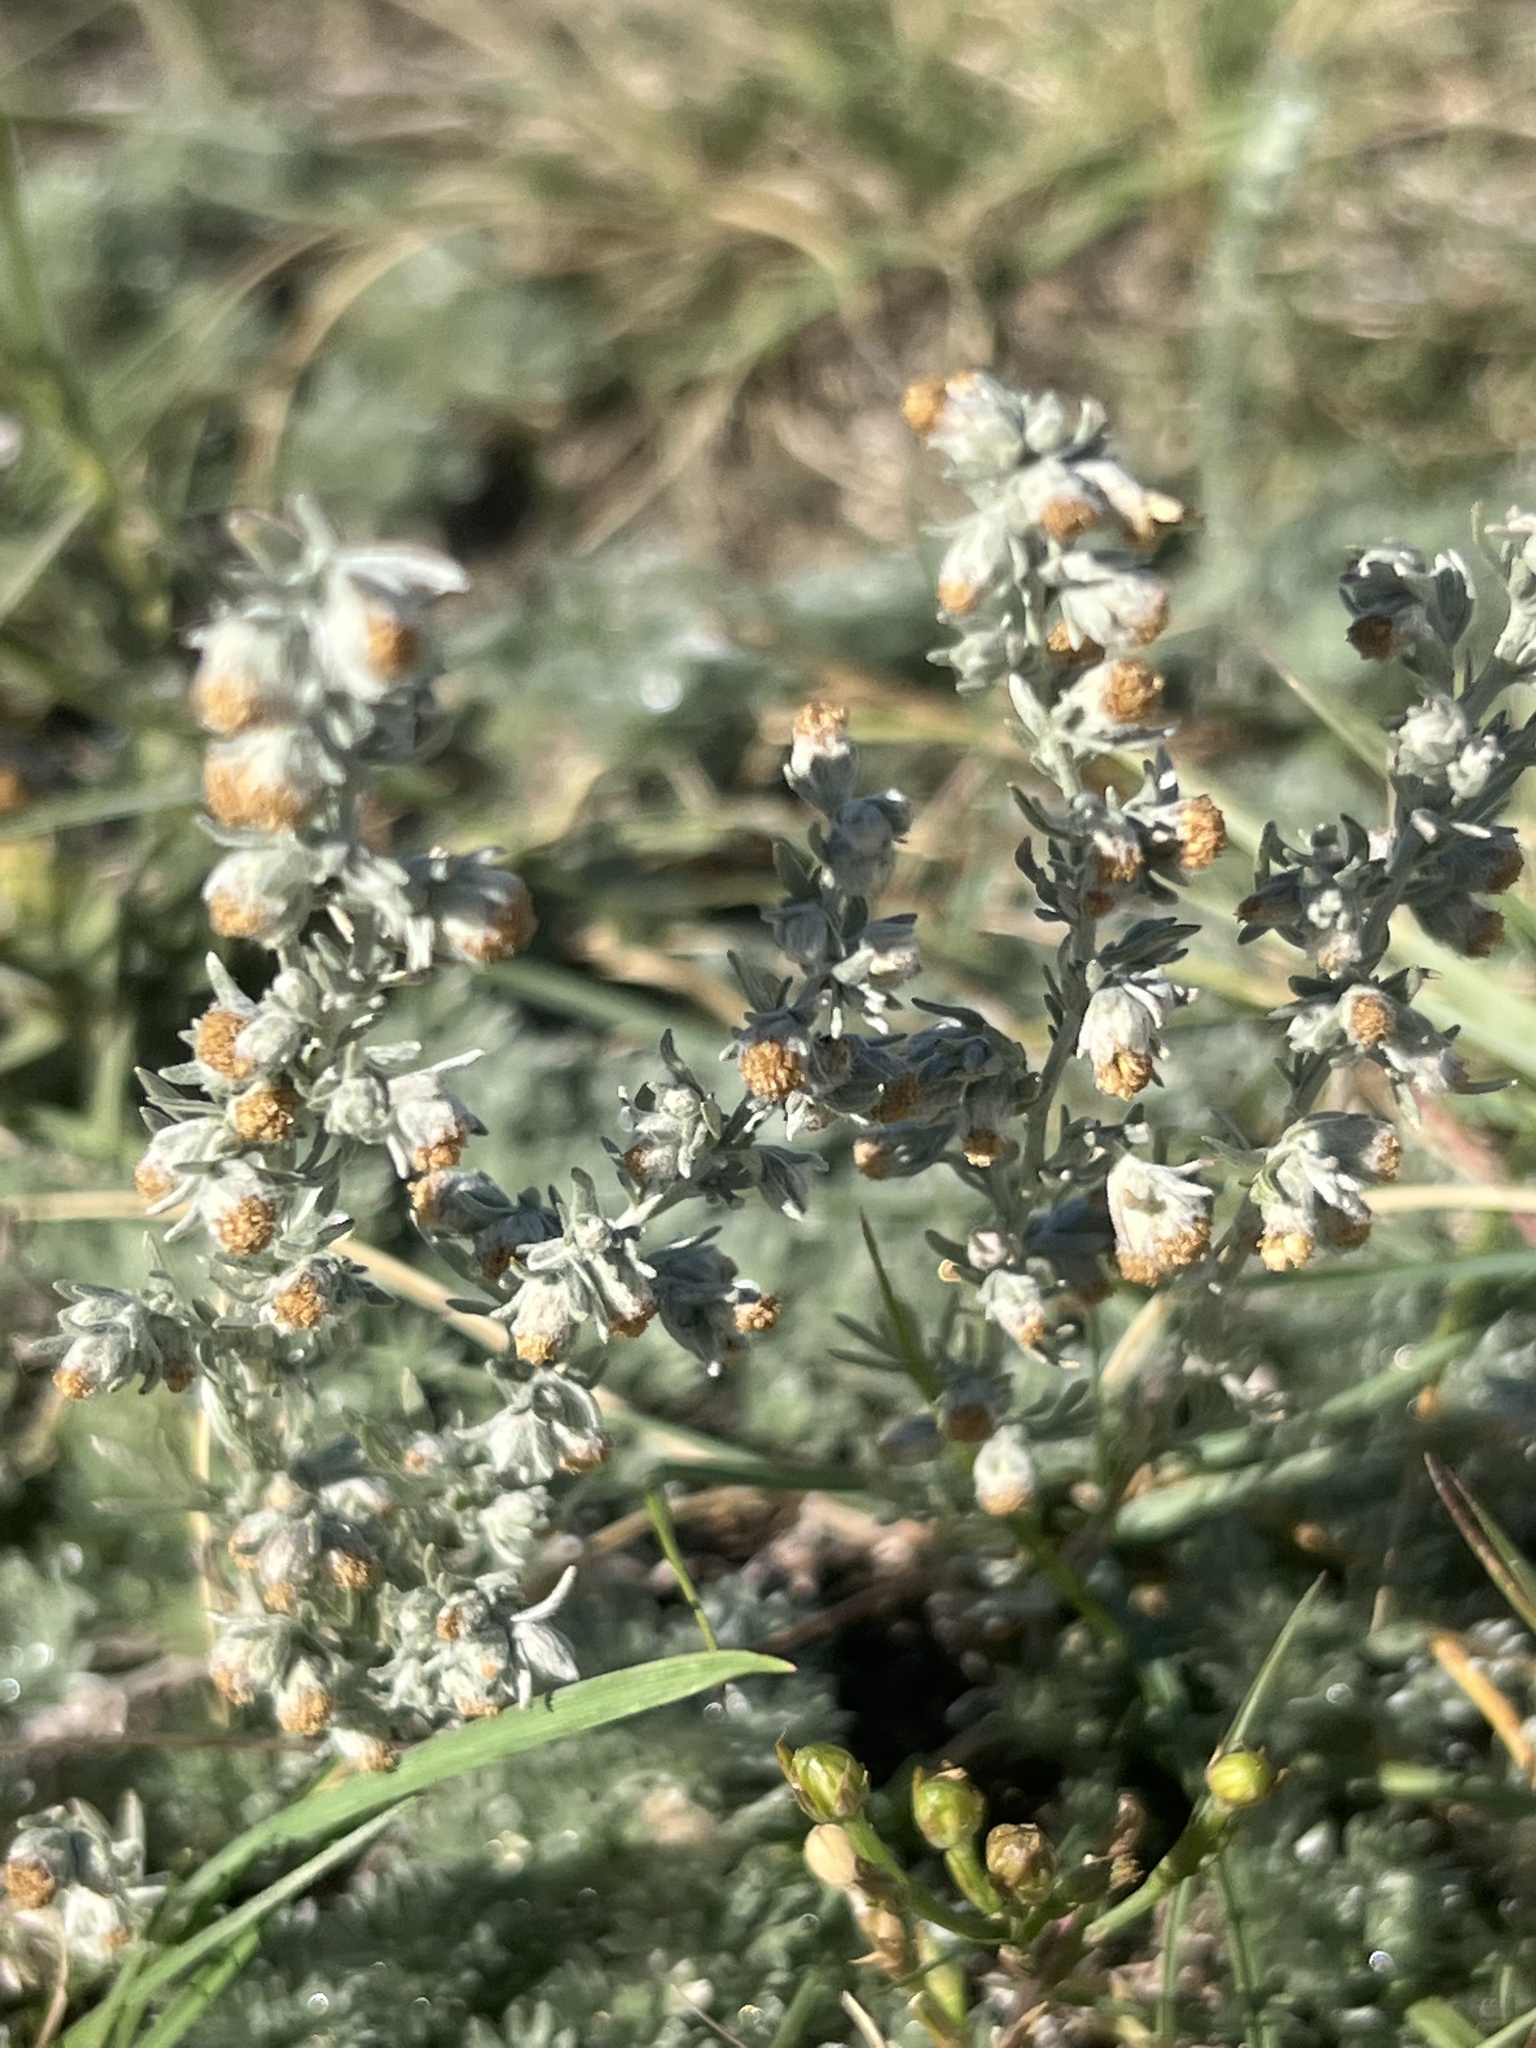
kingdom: Plantae
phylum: Tracheophyta
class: Magnoliopsida
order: Asterales
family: Asteraceae
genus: Artemisia
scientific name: Artemisia frigida
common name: Prairie sagewort
